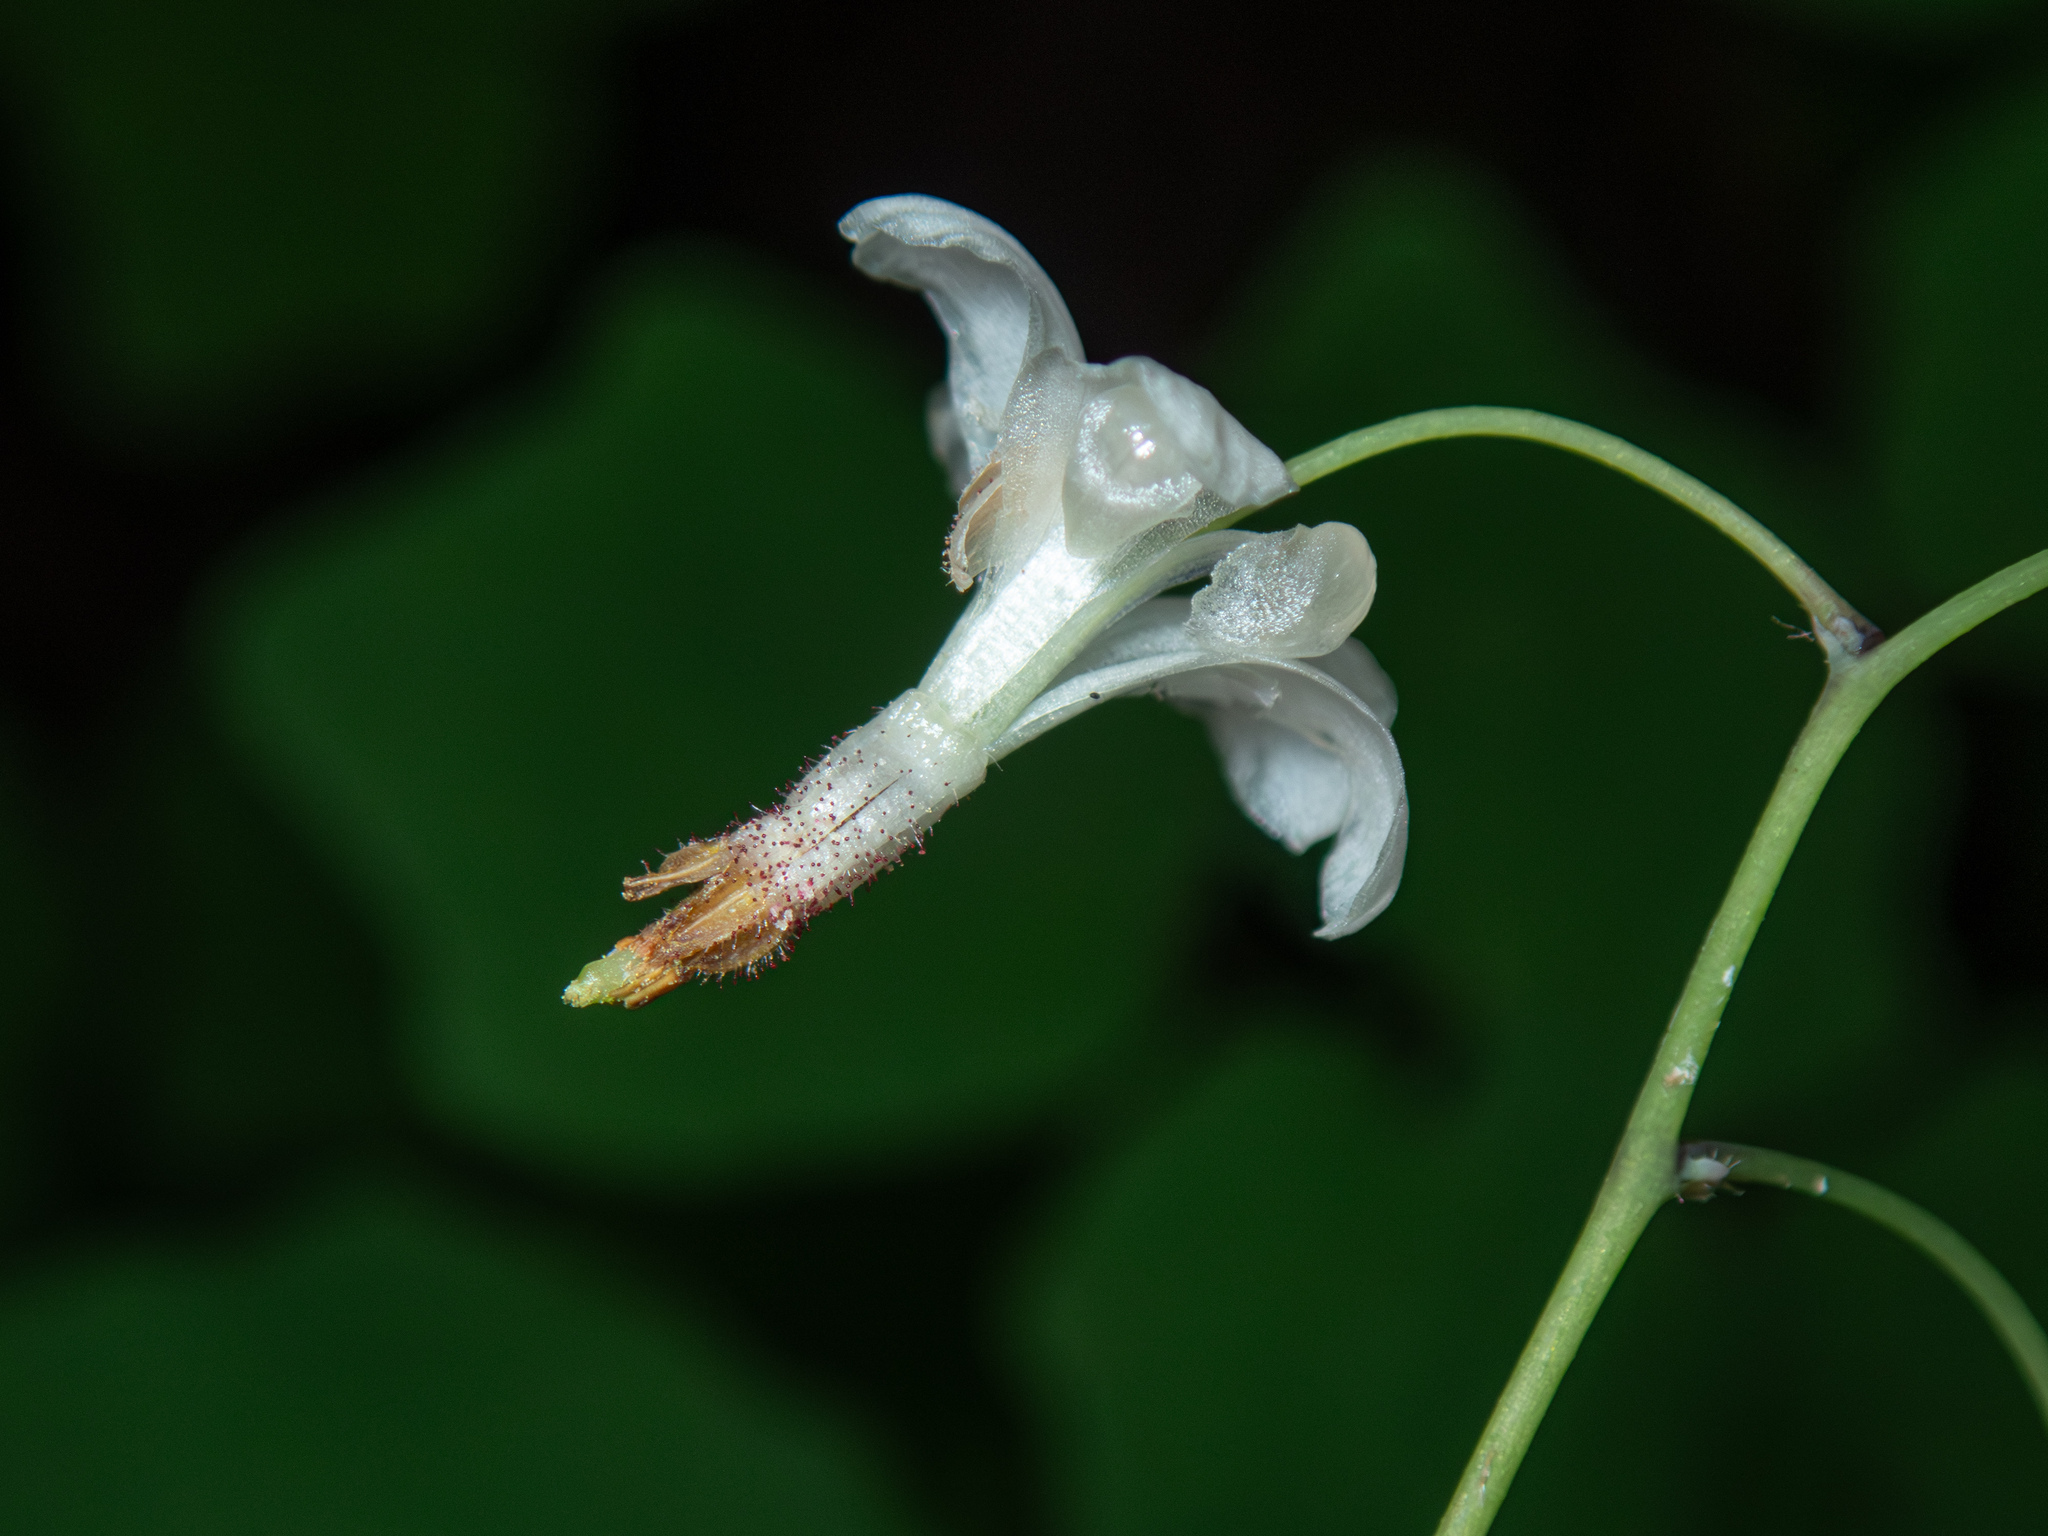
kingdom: Plantae
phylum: Tracheophyta
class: Magnoliopsida
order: Ranunculales
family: Berberidaceae
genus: Vancouveria
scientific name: Vancouveria hexandra
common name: Northern inside-out-flower
